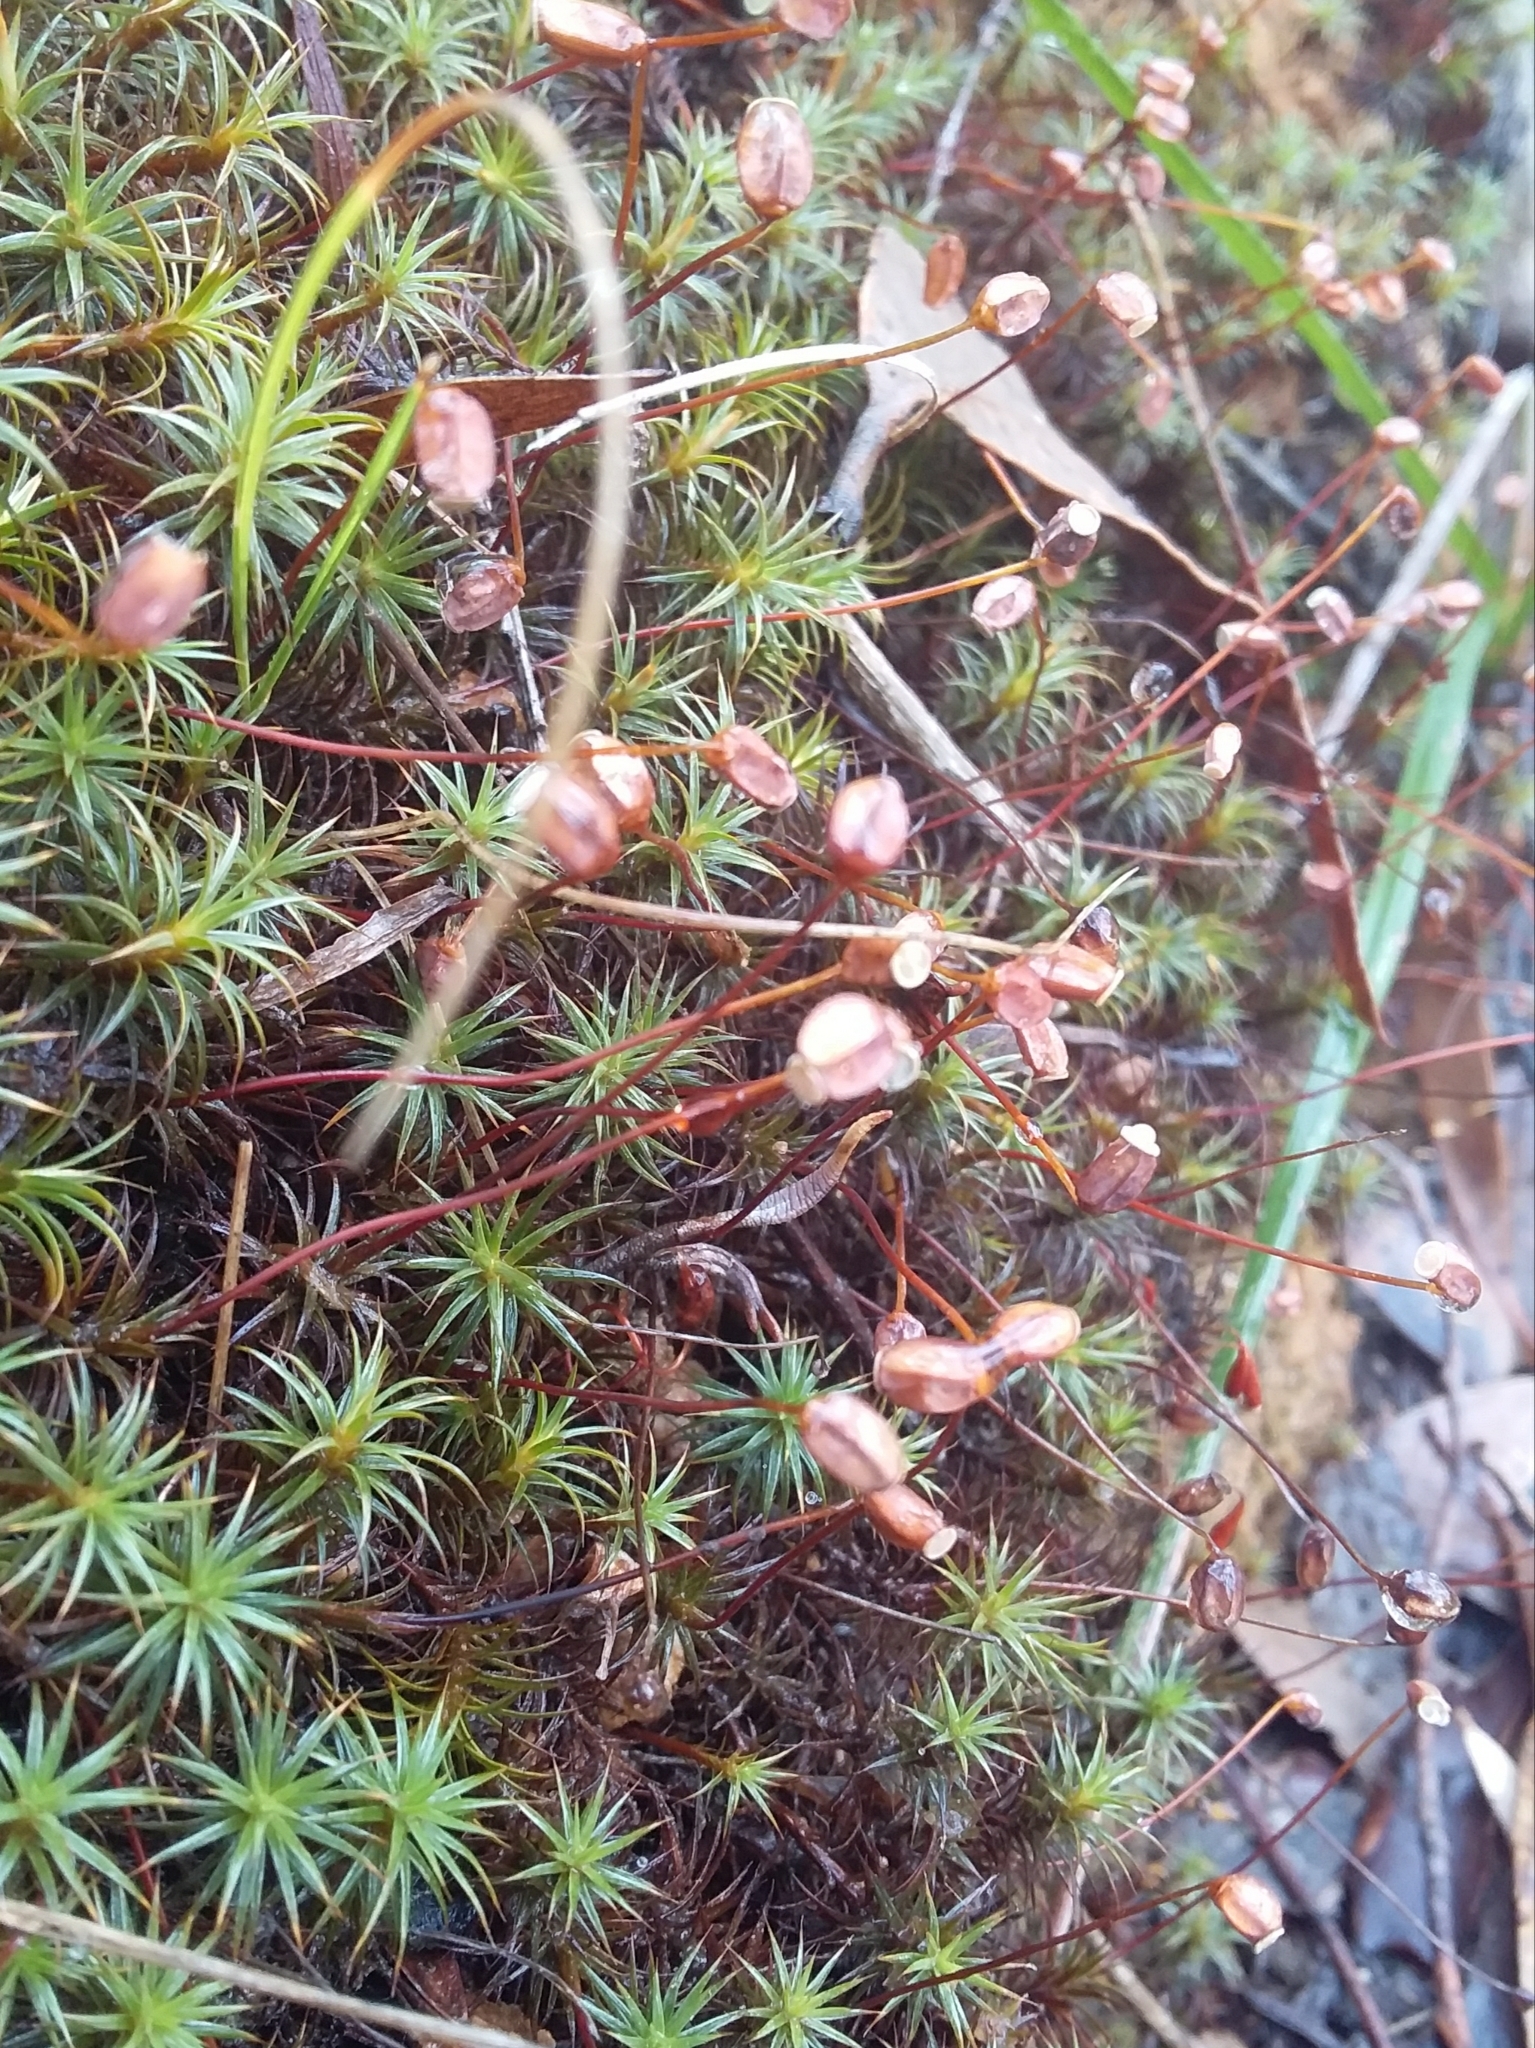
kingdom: Plantae
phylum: Bryophyta
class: Polytrichopsida
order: Polytrichales
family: Polytrichaceae
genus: Polytrichum
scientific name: Polytrichum juniperinum
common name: Juniper haircap moss
